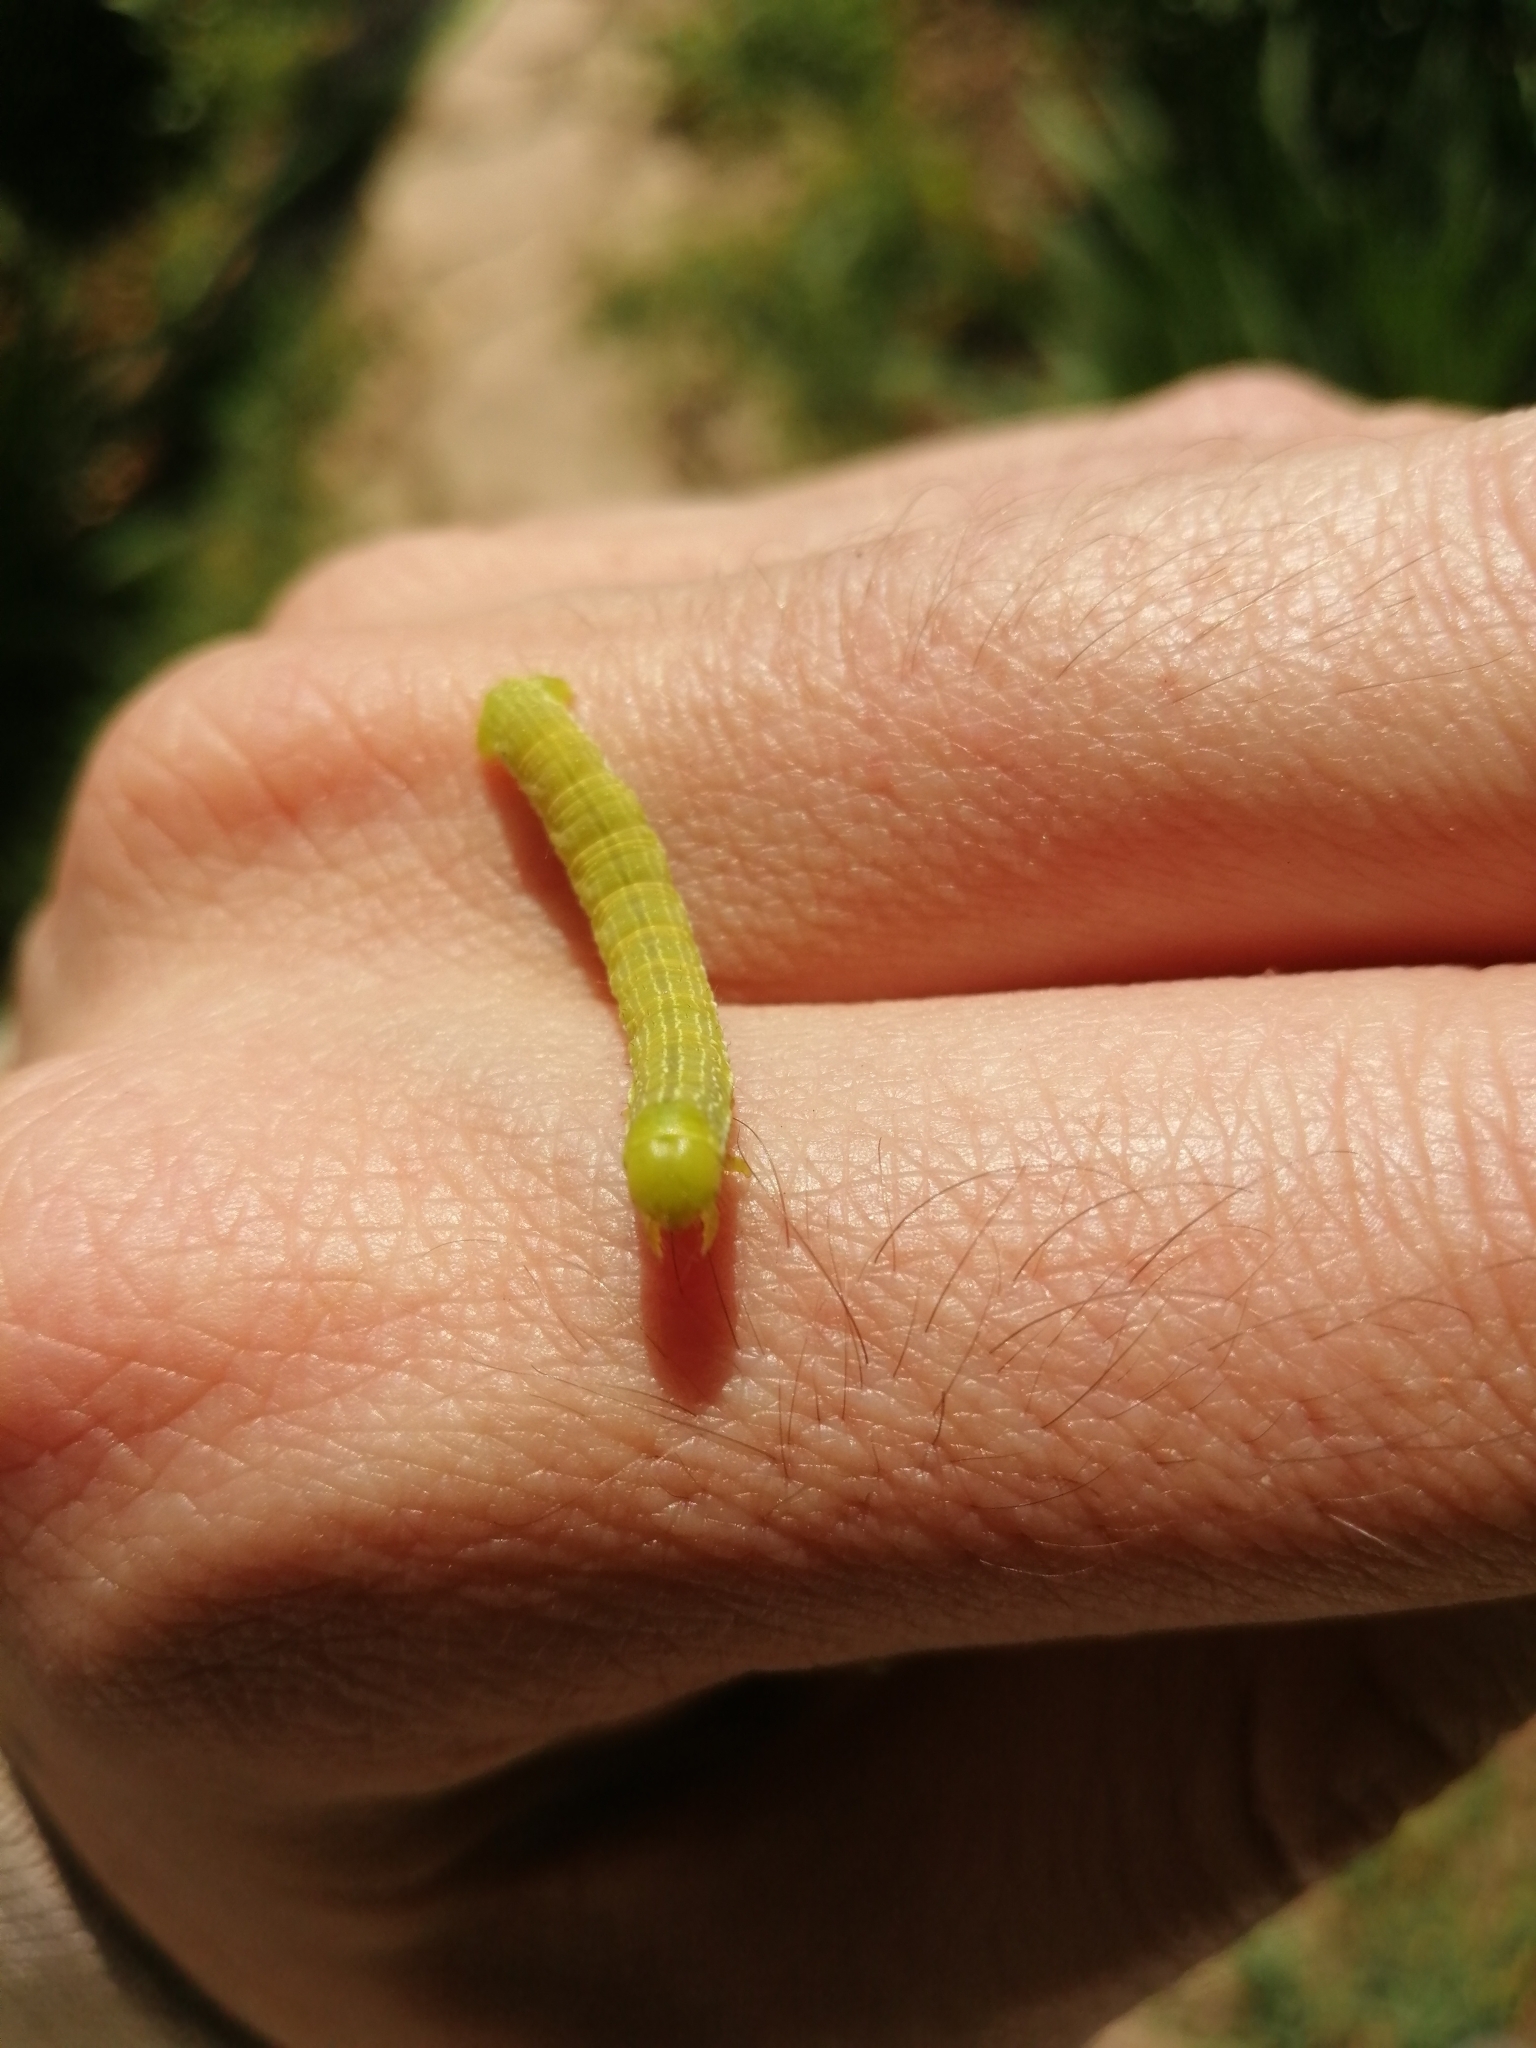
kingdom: Animalia
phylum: Arthropoda
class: Insecta
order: Lepidoptera
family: Geometridae
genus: Archiearis
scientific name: Archiearis parthenias
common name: Orange underwing
